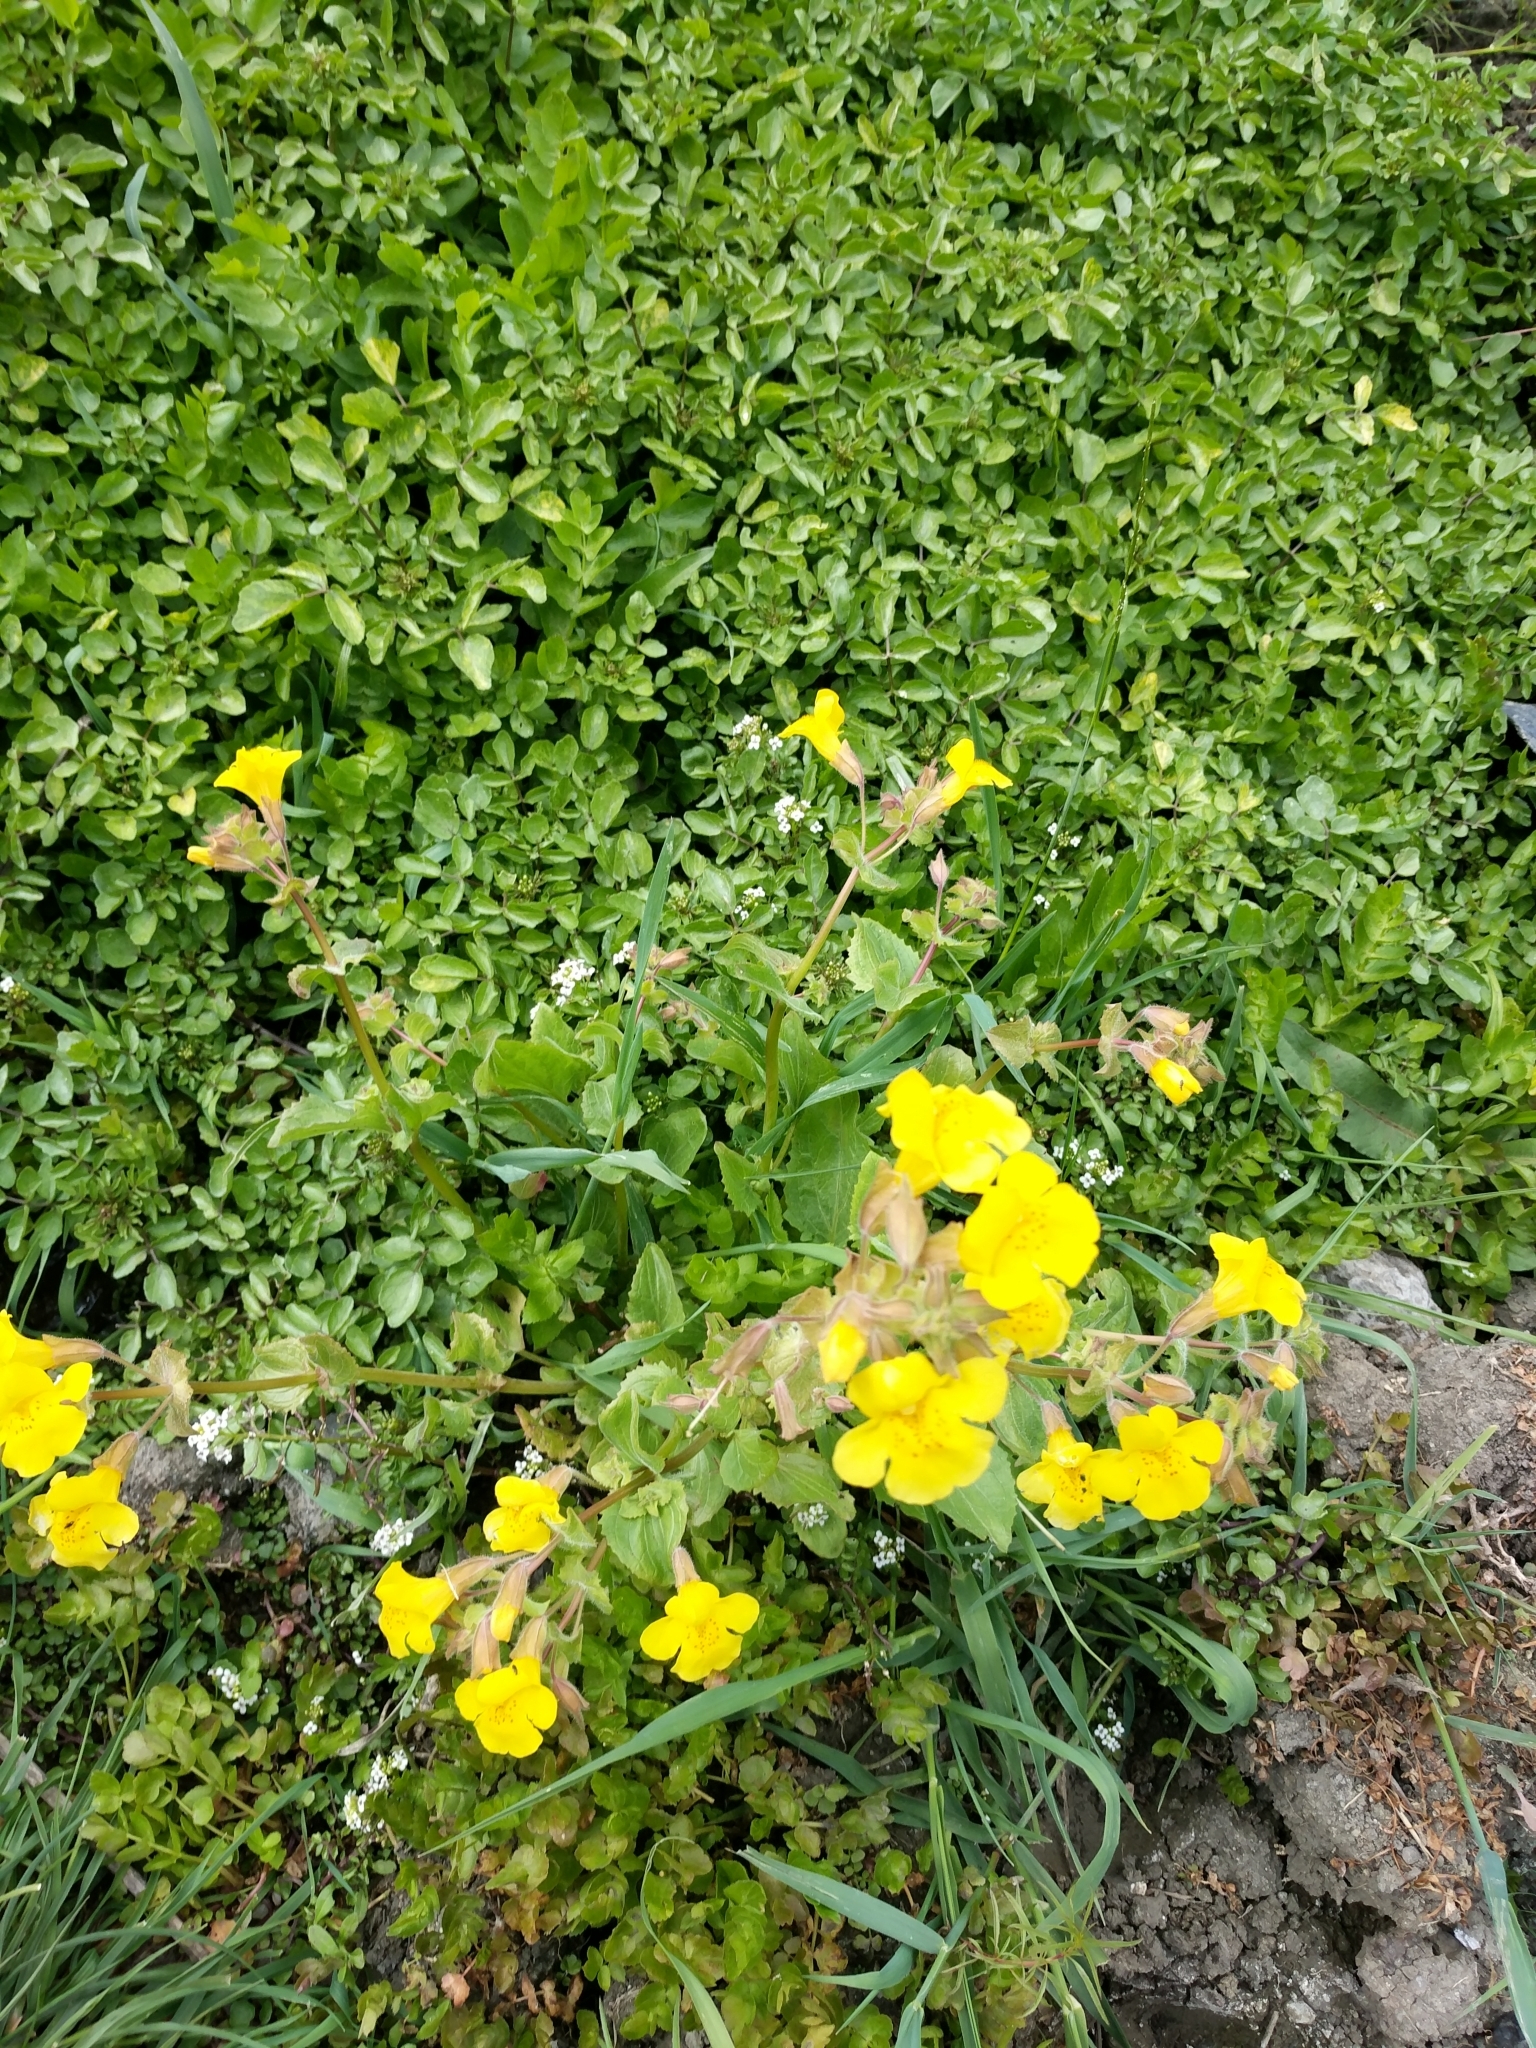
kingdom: Plantae
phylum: Tracheophyta
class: Magnoliopsida
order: Lamiales
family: Phrymaceae
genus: Erythranthe
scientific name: Erythranthe guttata
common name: Monkeyflower
